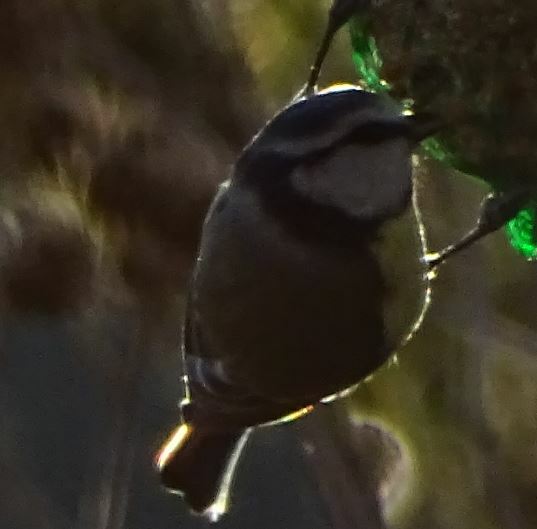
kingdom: Animalia
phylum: Chordata
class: Aves
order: Passeriformes
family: Paridae
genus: Cyanistes
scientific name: Cyanistes caeruleus
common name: Eurasian blue tit
